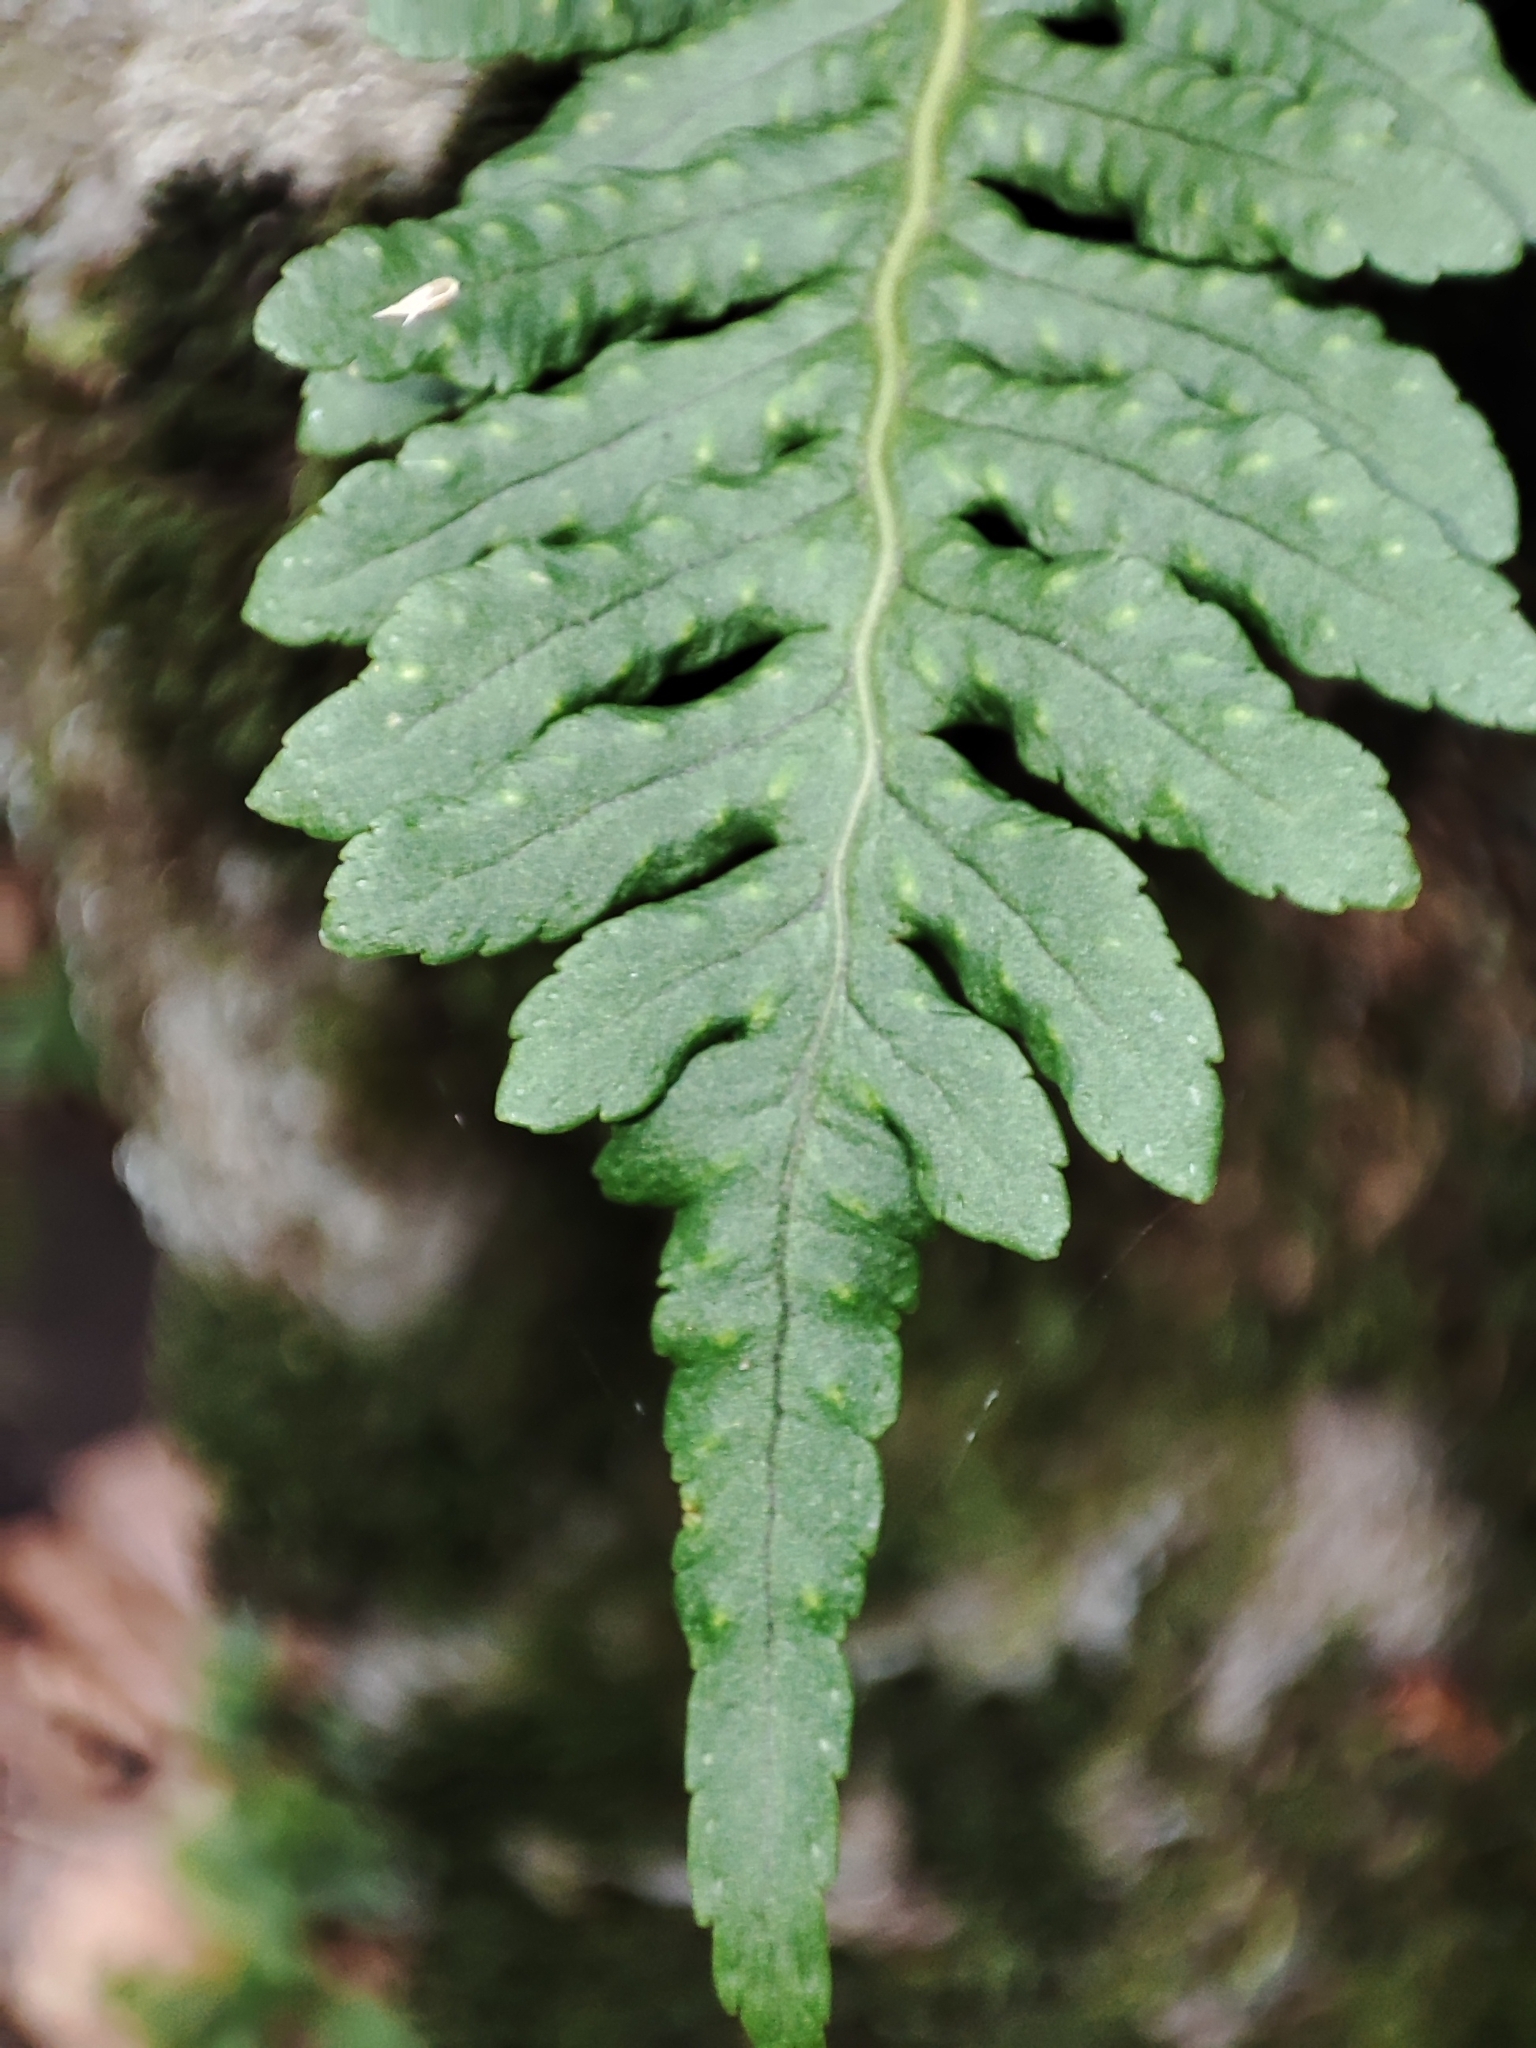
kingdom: Plantae
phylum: Tracheophyta
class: Polypodiopsida
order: Polypodiales
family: Polypodiaceae
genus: Polypodium
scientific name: Polypodium vulgare
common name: Common polypody
